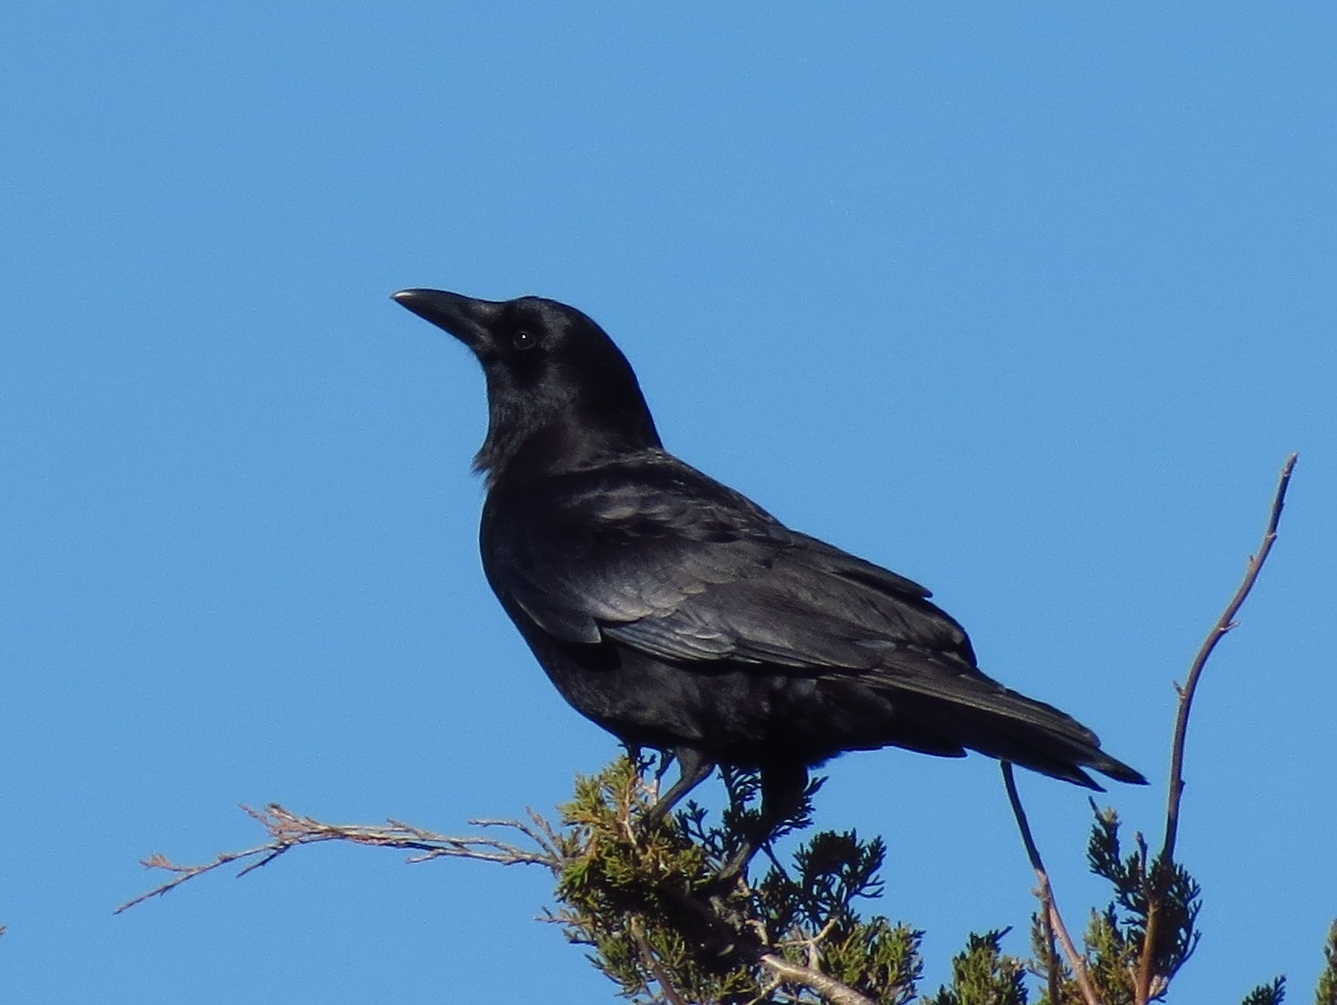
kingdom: Animalia
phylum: Chordata
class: Aves
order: Passeriformes
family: Corvidae
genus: Corvus
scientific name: Corvus brachyrhynchos
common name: American crow
